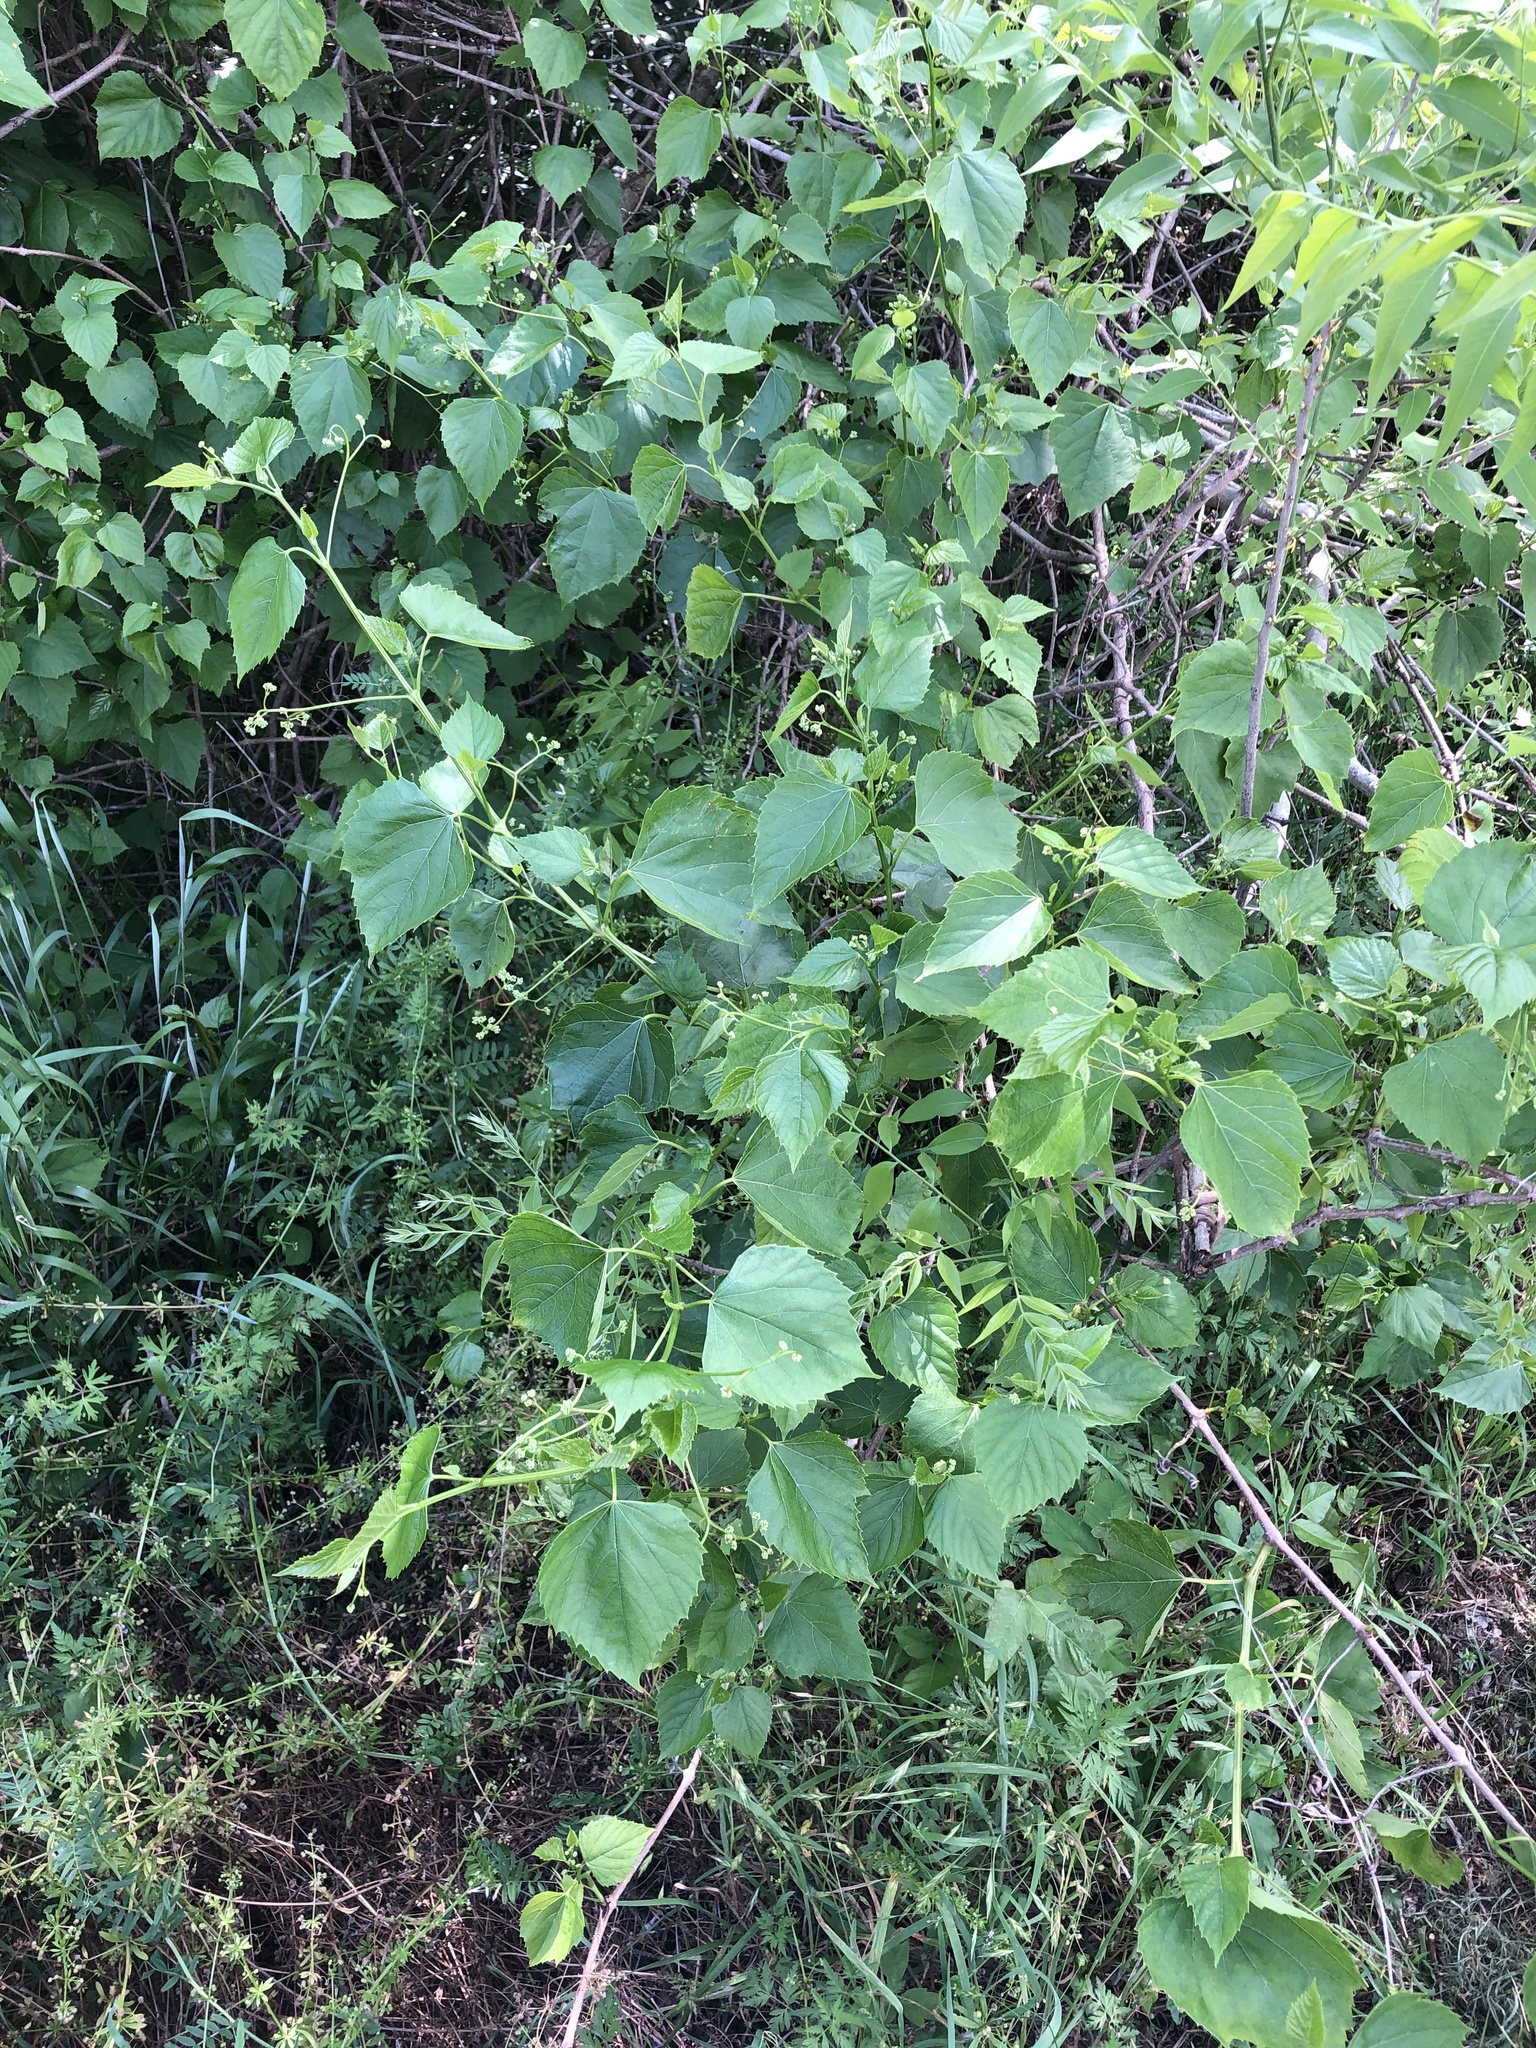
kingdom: Plantae
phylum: Tracheophyta
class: Magnoliopsida
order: Vitales
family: Vitaceae
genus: Ampelopsis
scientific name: Ampelopsis cordata
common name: Heart-leaf ampelopsis
